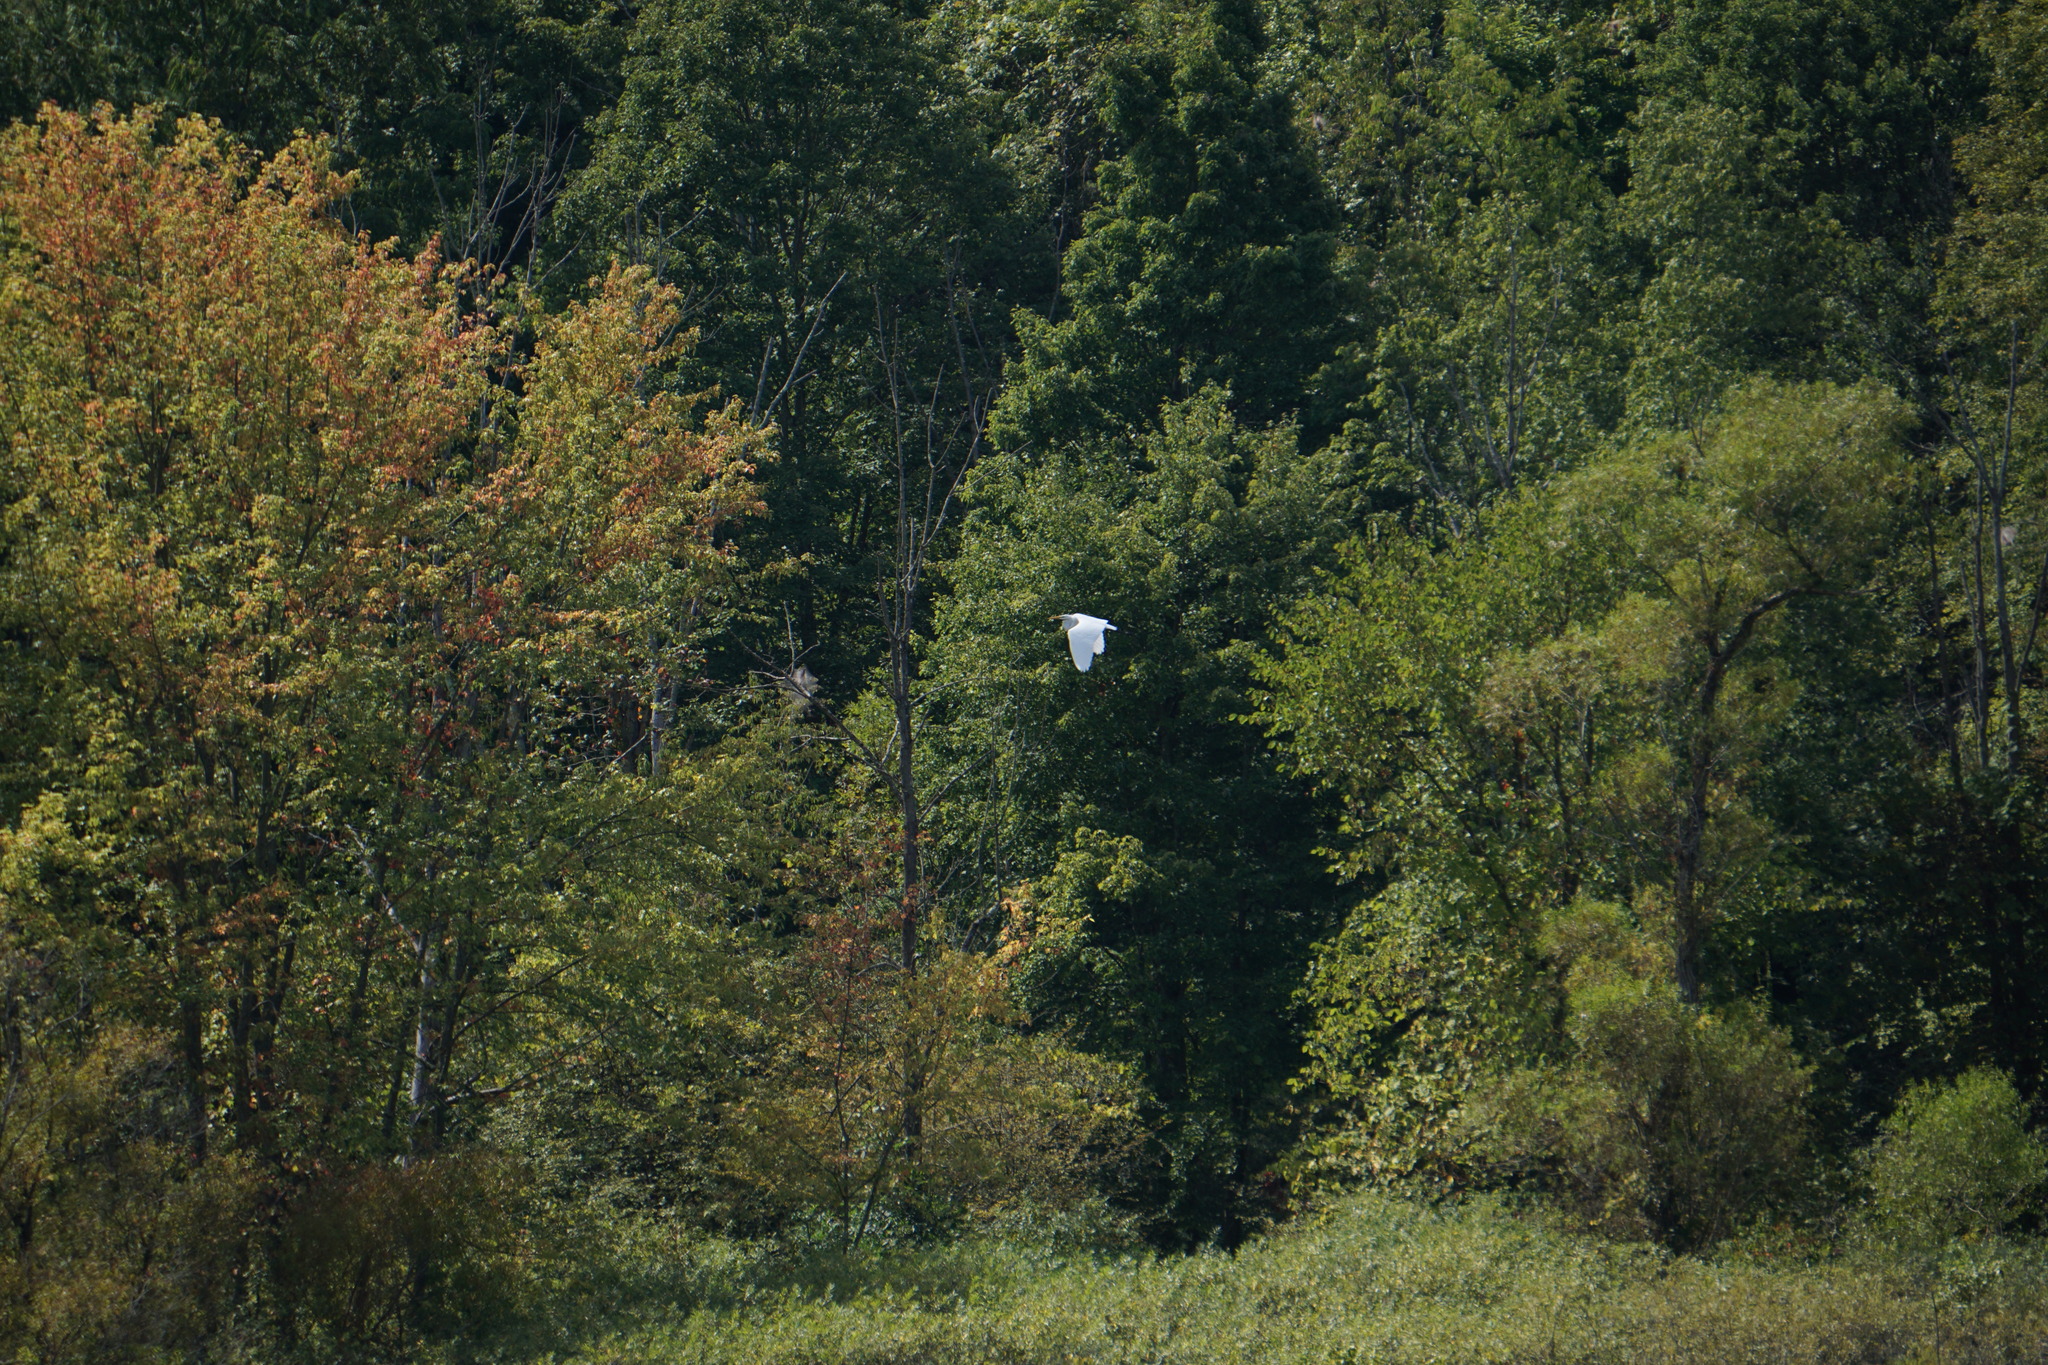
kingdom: Animalia
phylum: Chordata
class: Aves
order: Pelecaniformes
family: Ardeidae
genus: Ardea
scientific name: Ardea alba
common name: Great egret
